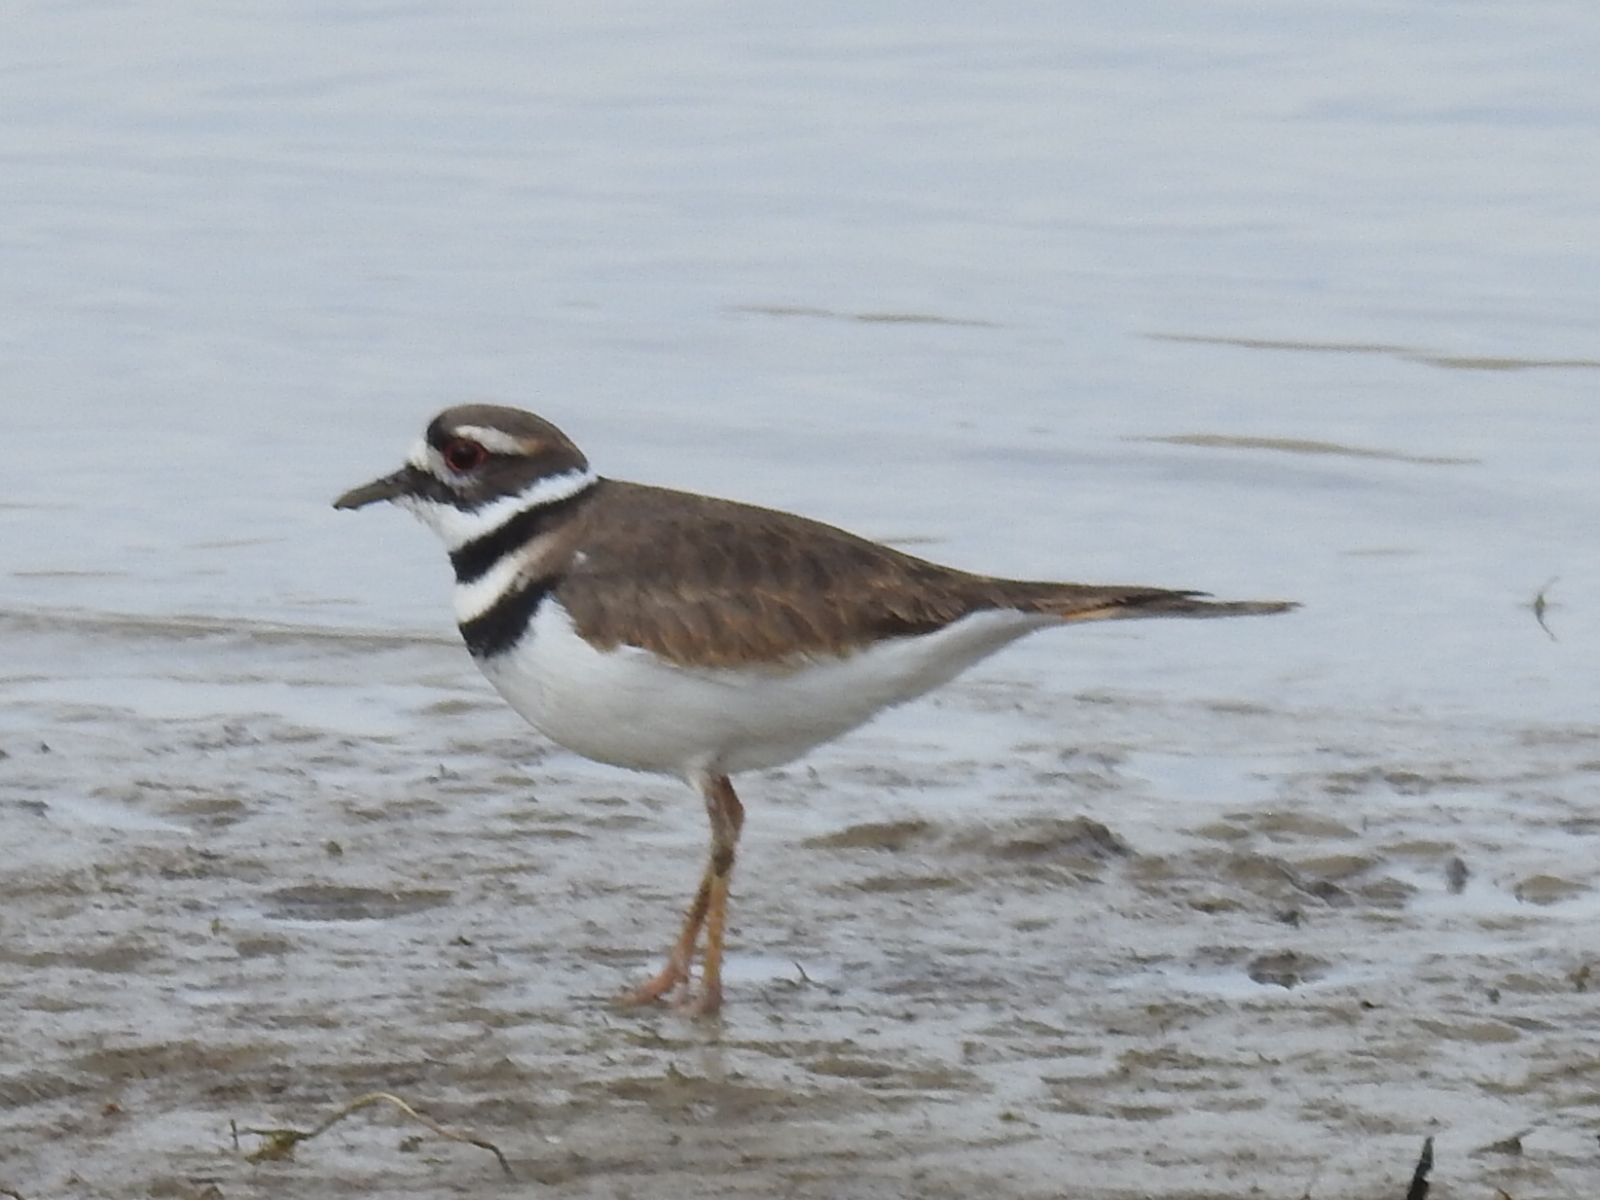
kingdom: Animalia
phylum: Chordata
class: Aves
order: Charadriiformes
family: Charadriidae
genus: Charadrius
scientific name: Charadrius vociferus
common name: Killdeer
